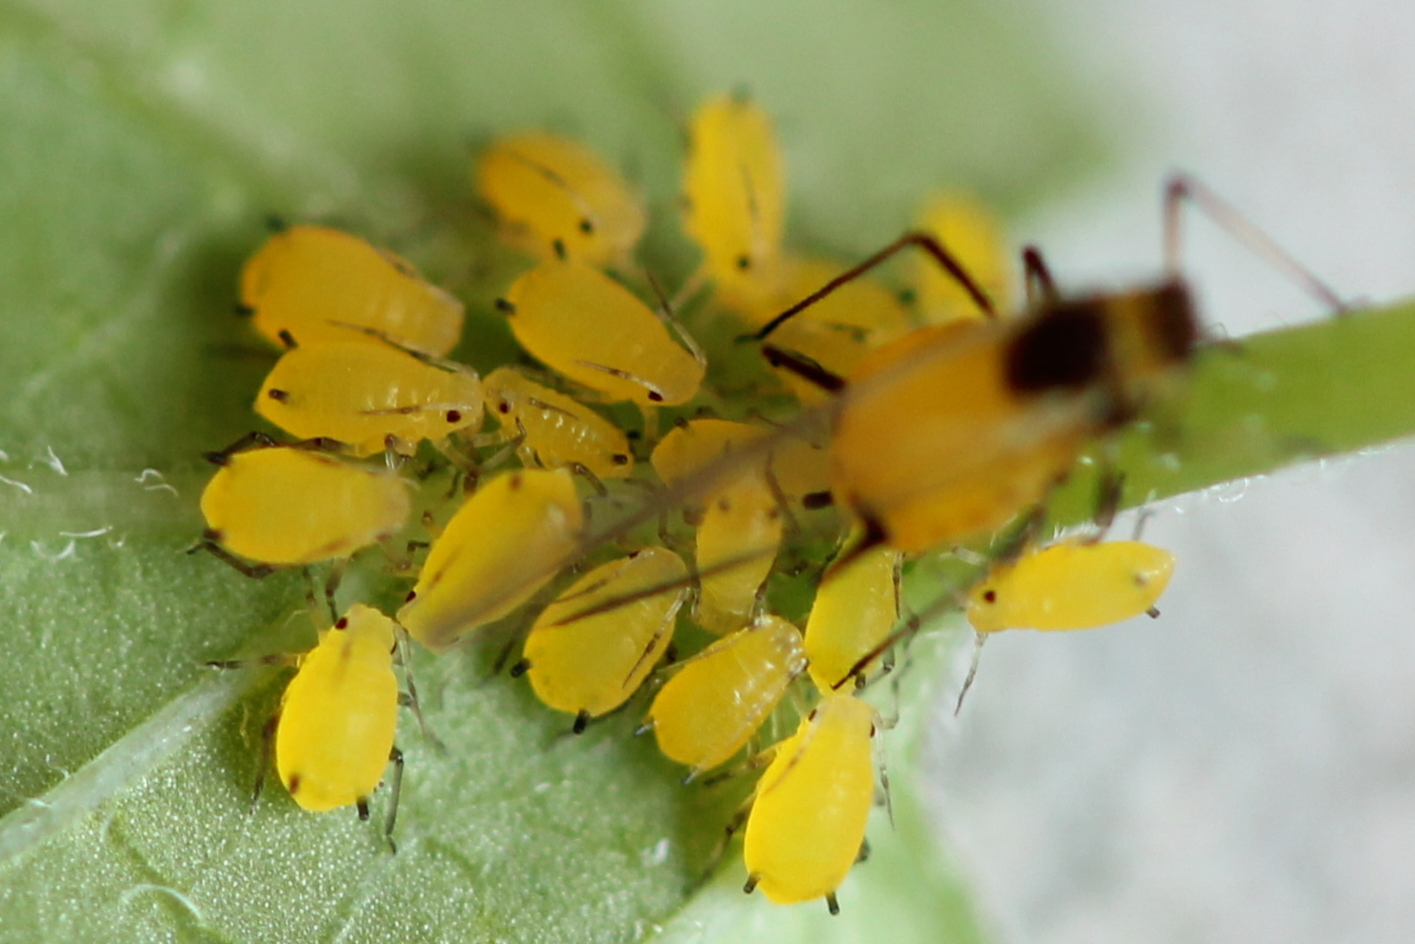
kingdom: Animalia
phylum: Arthropoda
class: Insecta
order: Hemiptera
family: Aphididae
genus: Aphis
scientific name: Aphis nerii
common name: Oleander aphid
